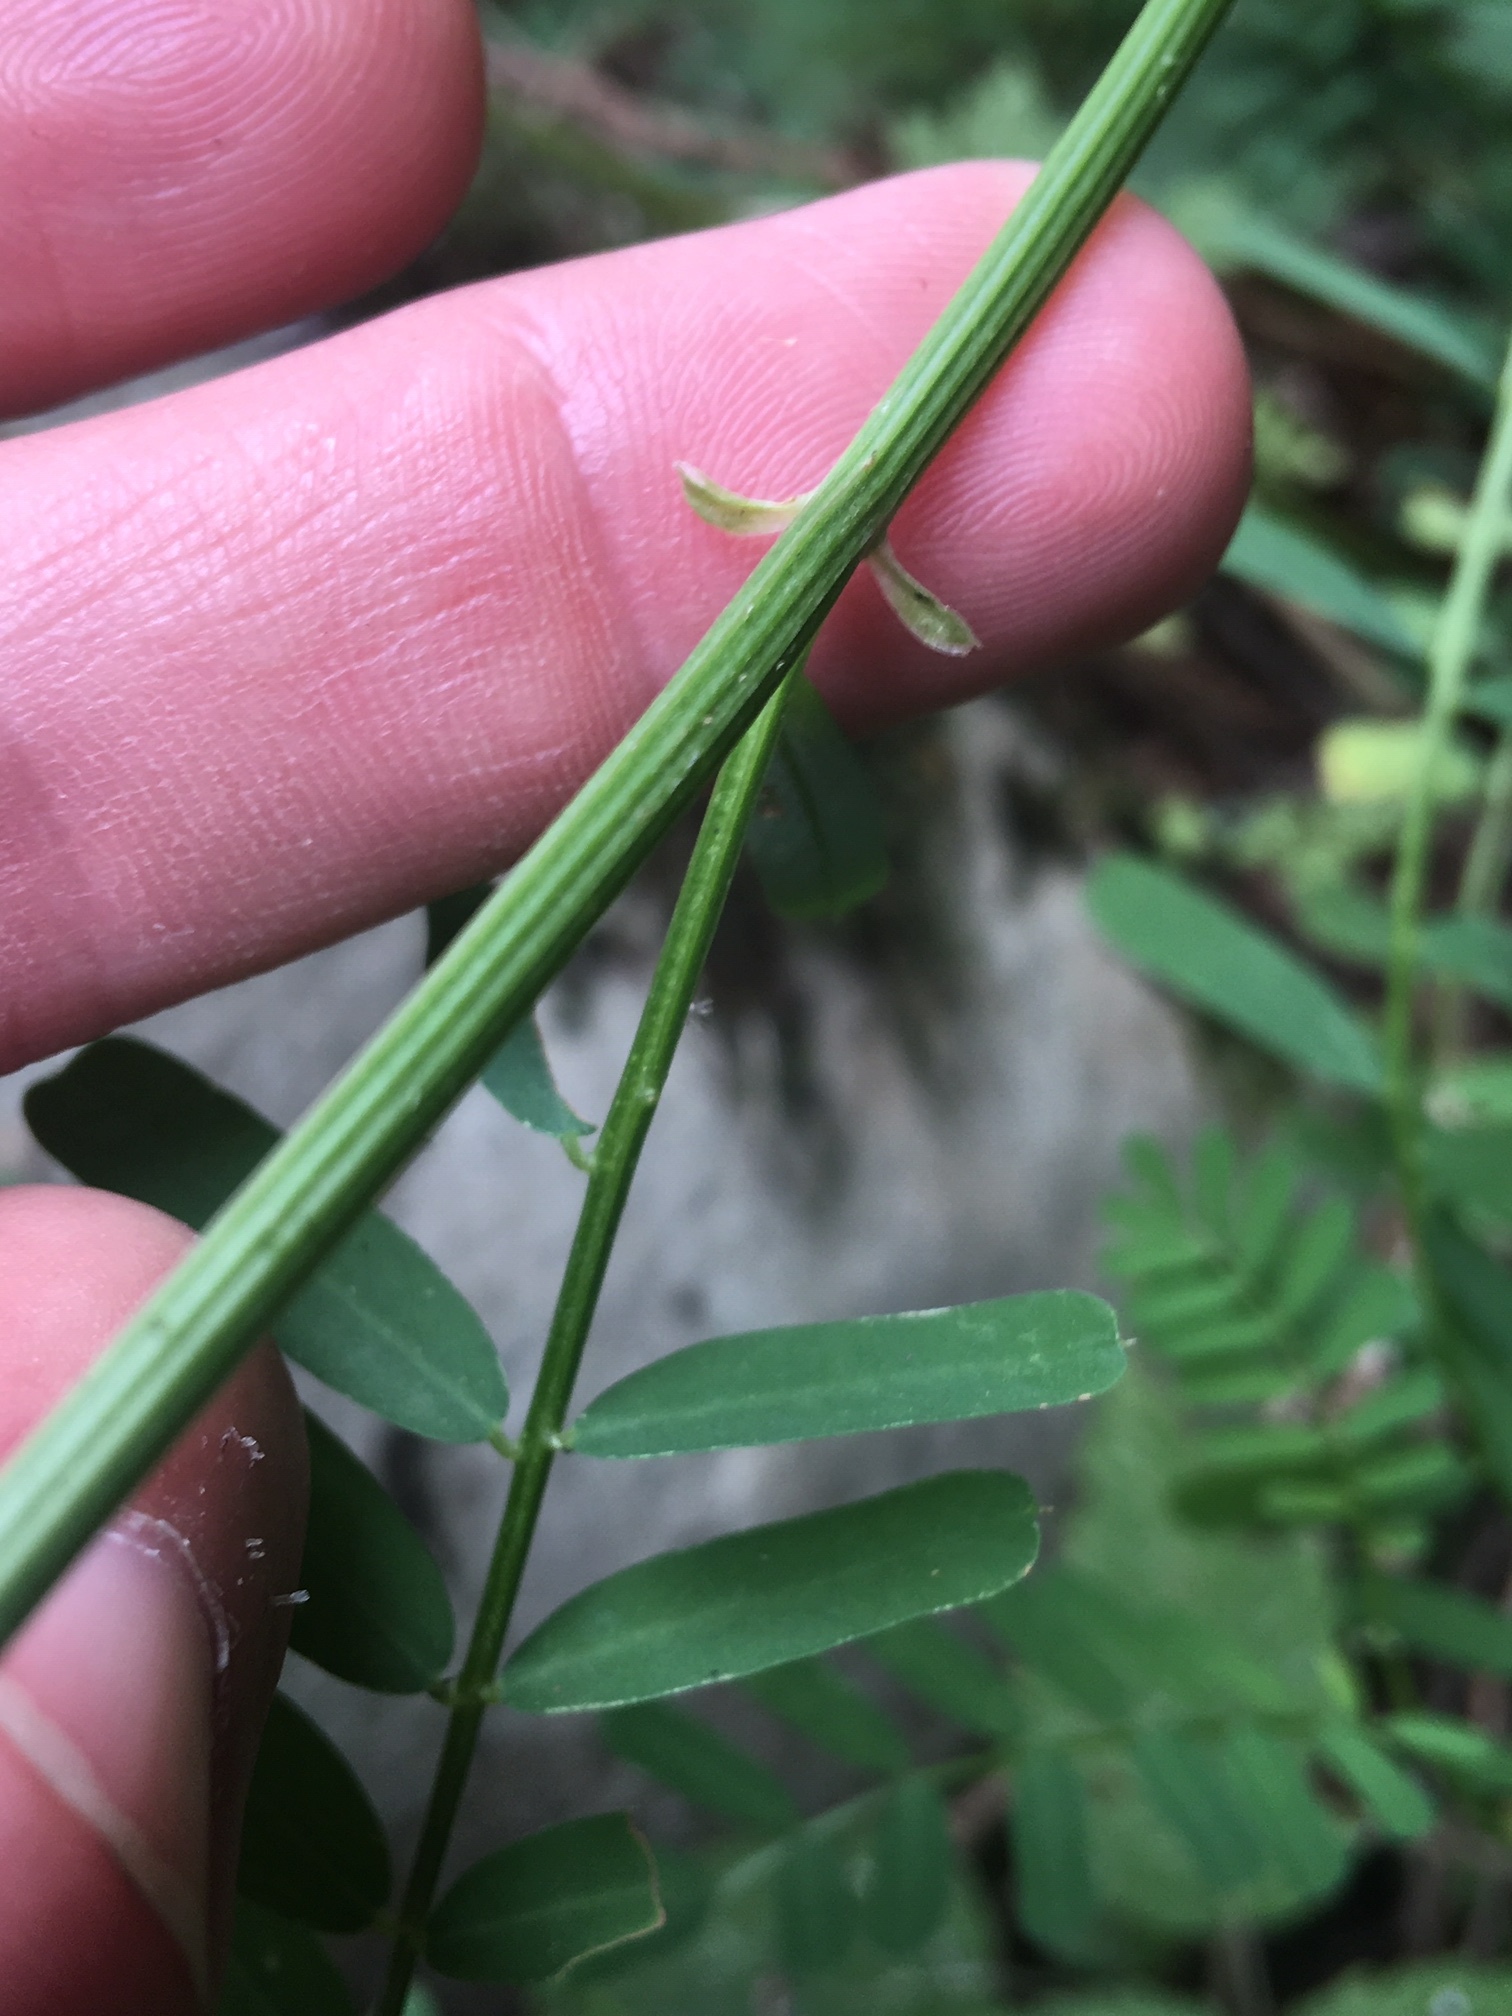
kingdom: Plantae
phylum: Tracheophyta
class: Magnoliopsida
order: Fabales
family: Fabaceae
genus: Coronilla
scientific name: Coronilla varia
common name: Crownvetch
